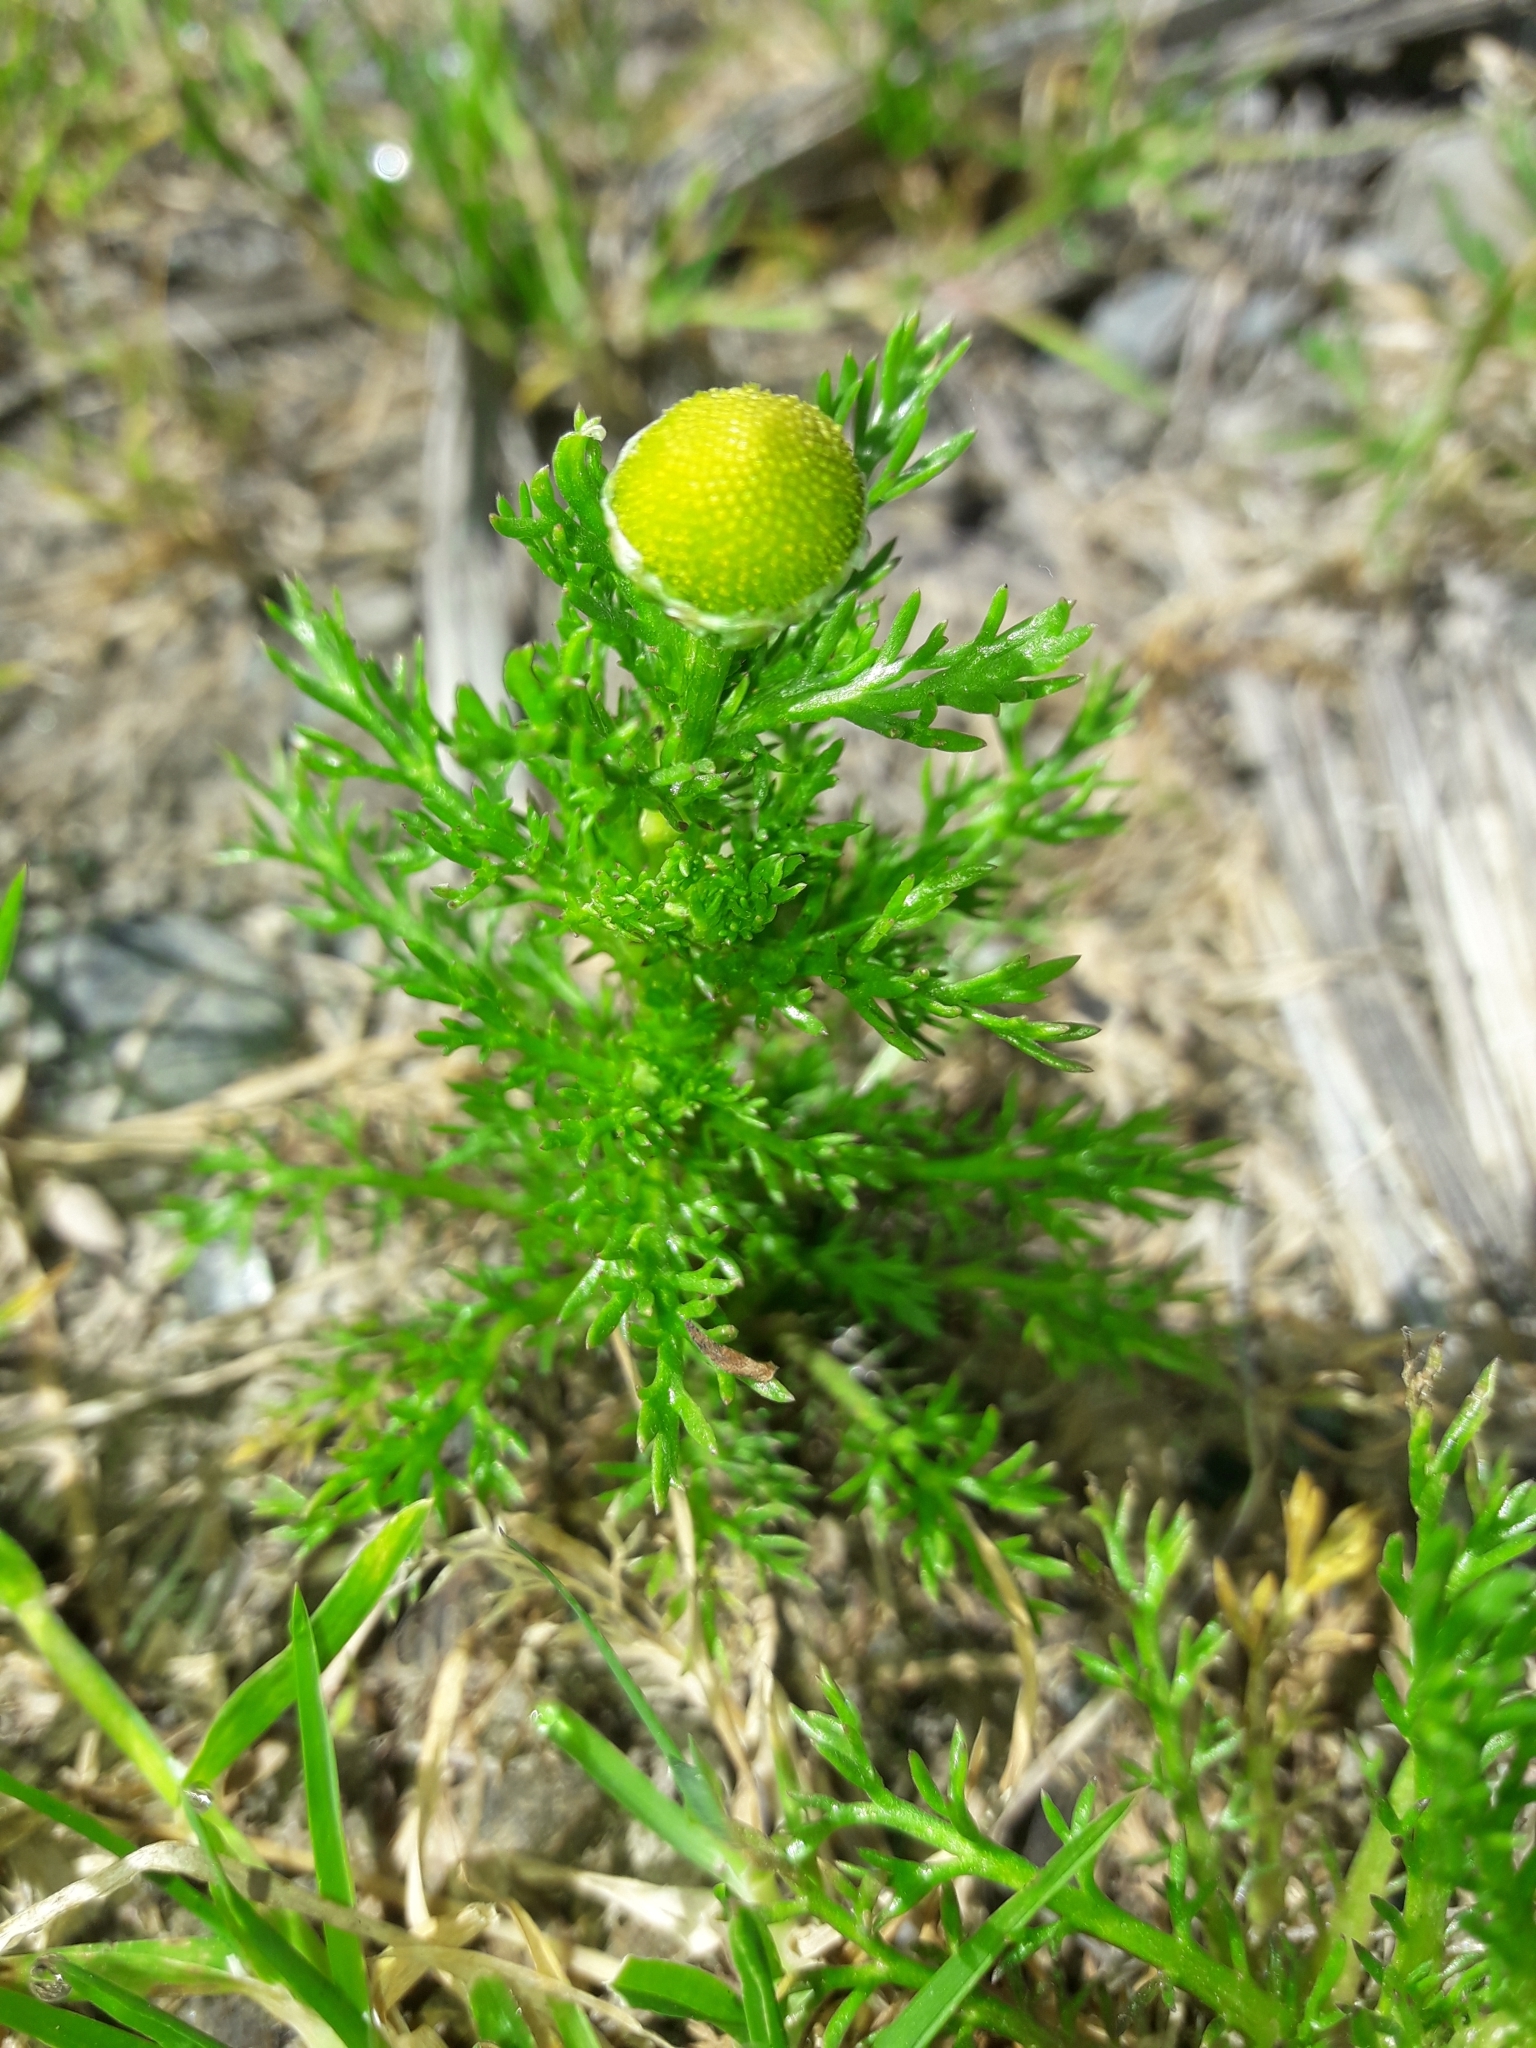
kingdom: Plantae
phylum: Tracheophyta
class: Magnoliopsida
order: Asterales
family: Asteraceae
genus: Matricaria
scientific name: Matricaria discoidea
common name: Disc mayweed
